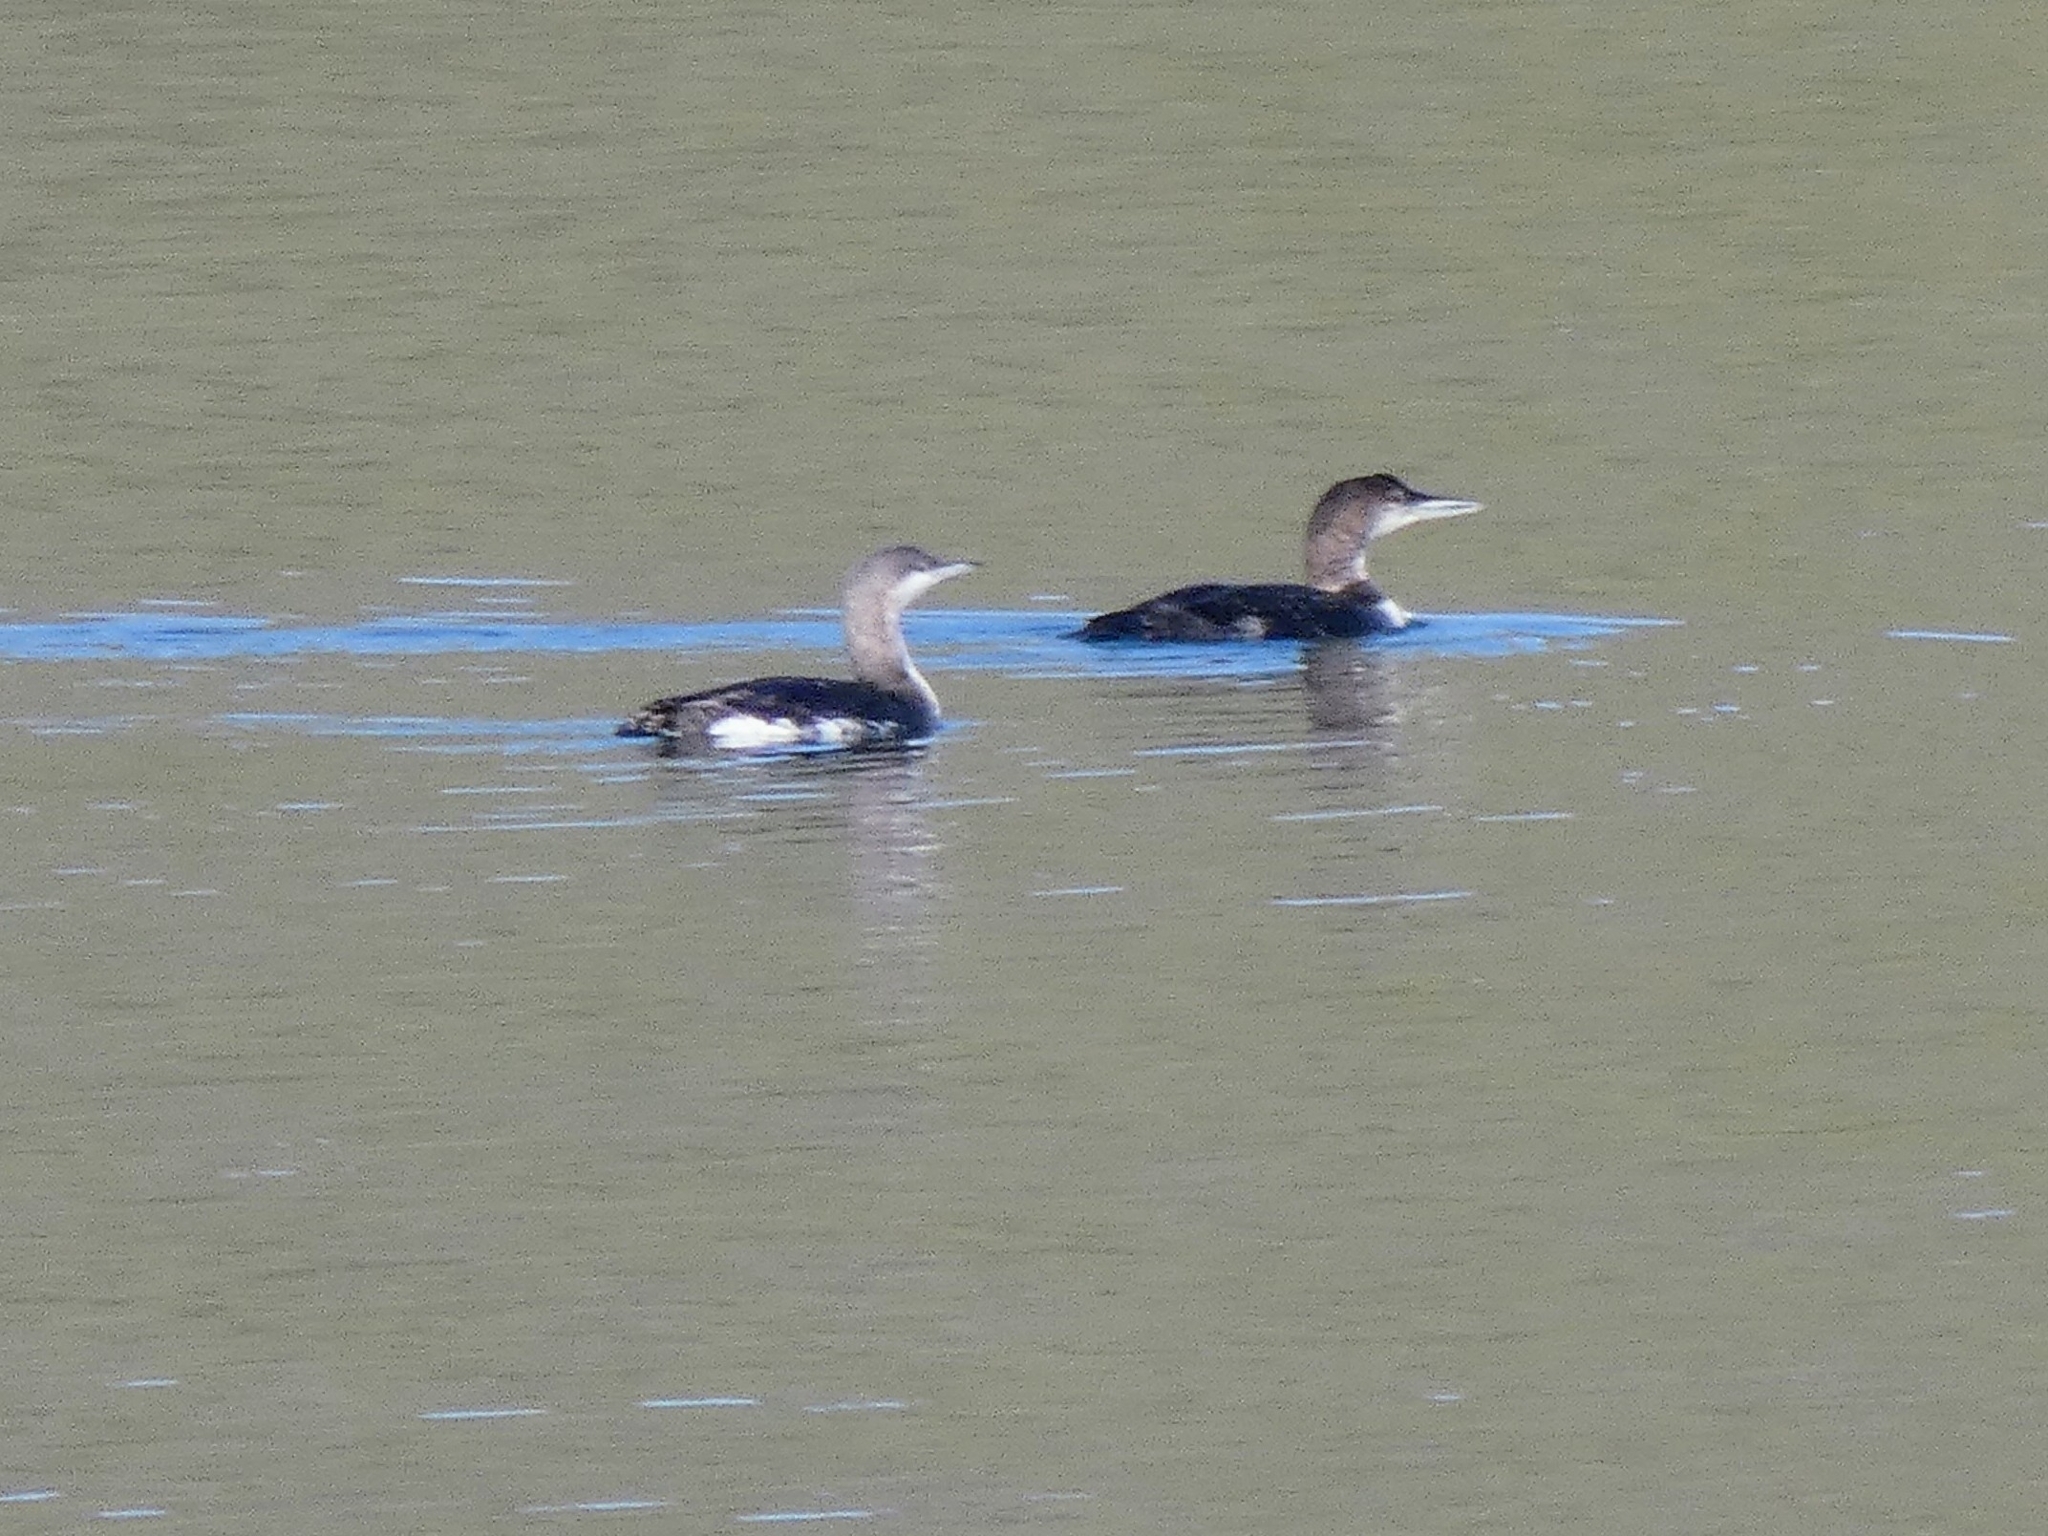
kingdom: Animalia
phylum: Chordata
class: Aves
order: Gaviiformes
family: Gaviidae
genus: Gavia
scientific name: Gavia immer
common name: Common loon
